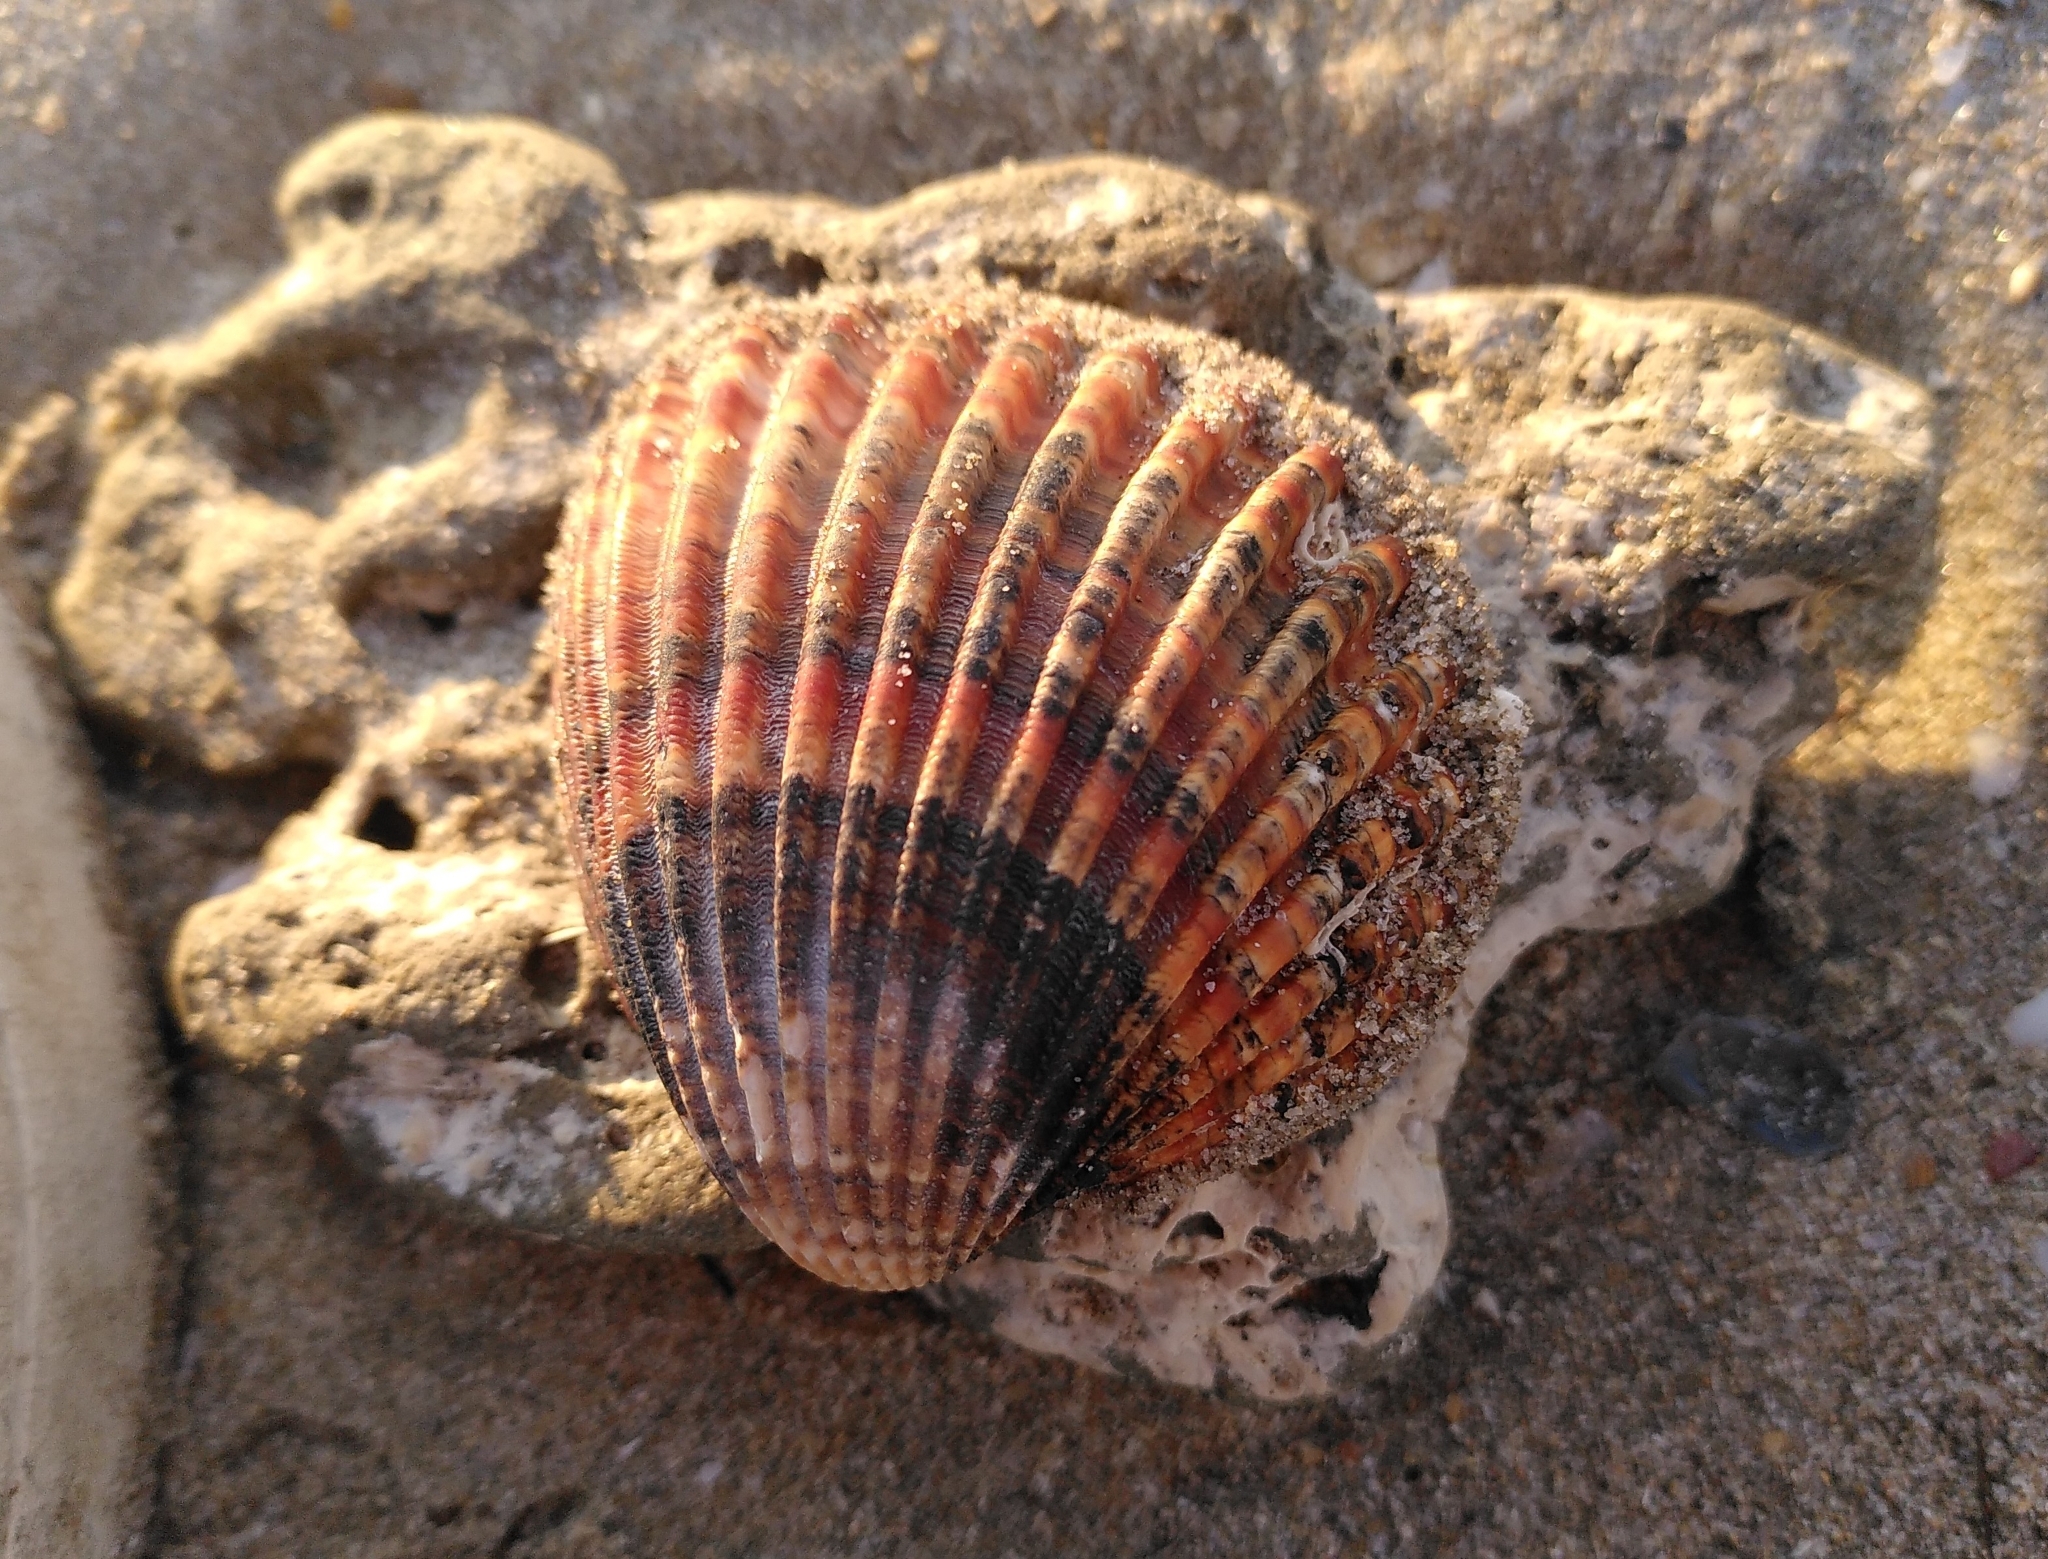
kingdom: Animalia
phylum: Mollusca
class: Bivalvia
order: Cardiida
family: Cardiidae
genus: Acanthocardia
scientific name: Acanthocardia tuberculata
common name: Rough cockle
